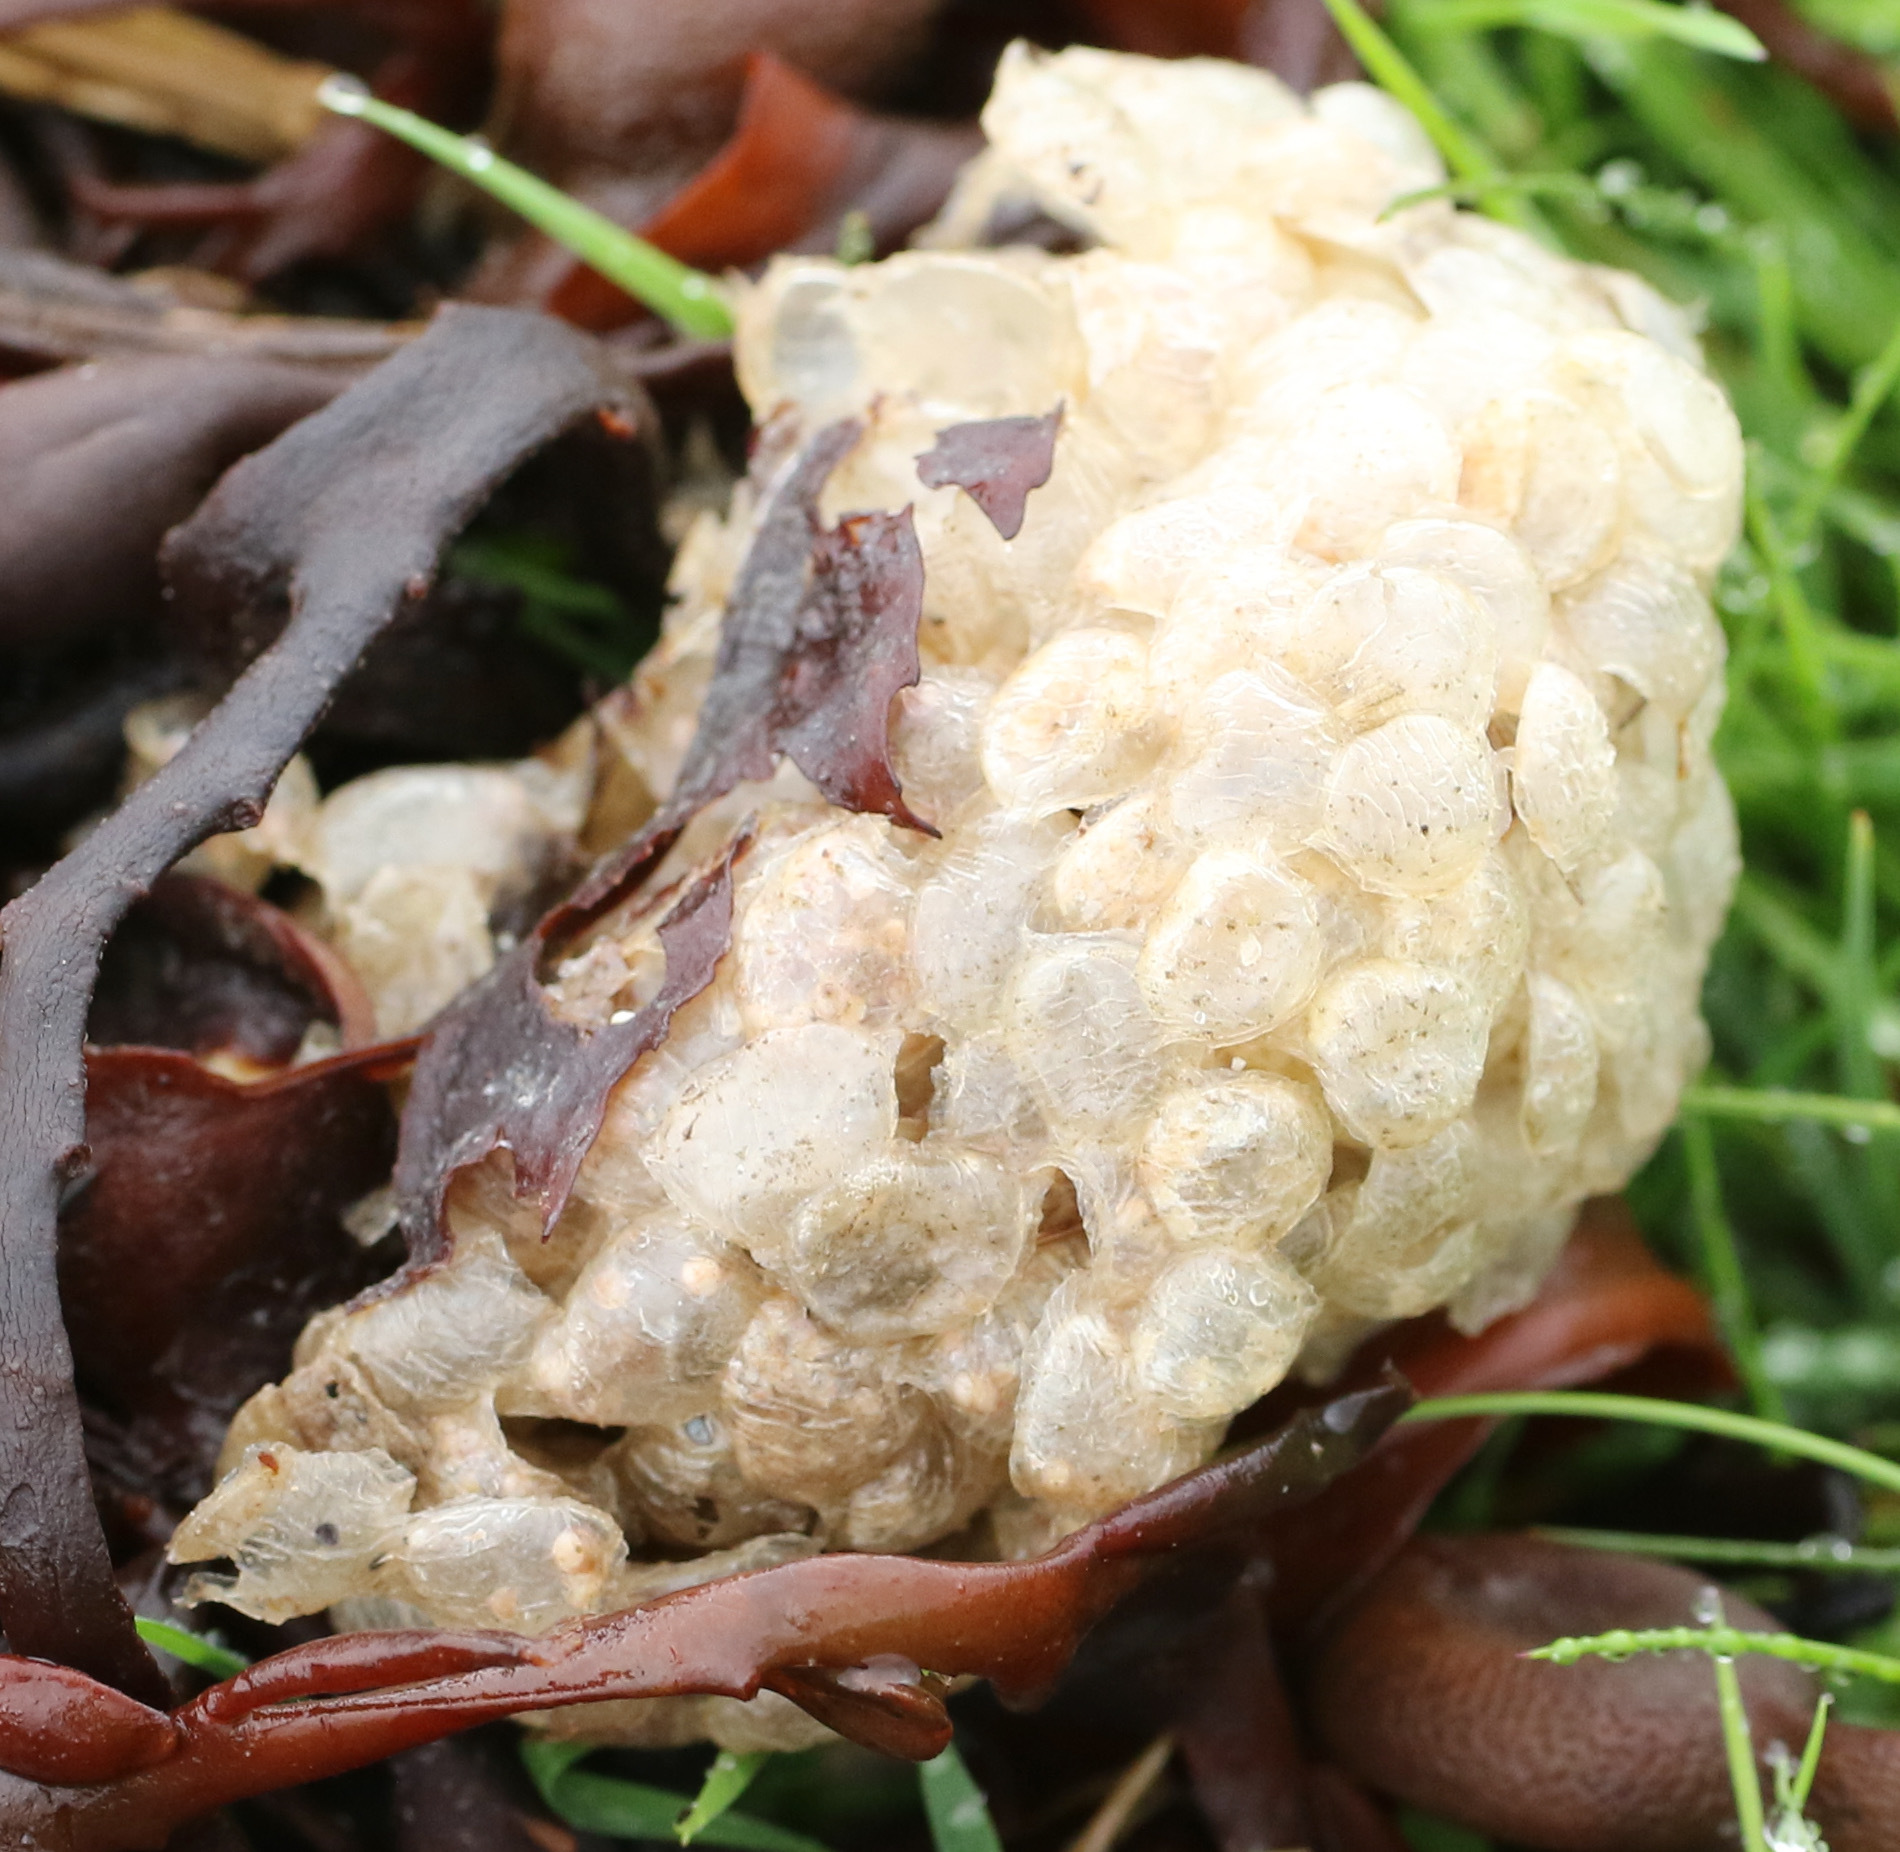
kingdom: Animalia
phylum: Mollusca
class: Gastropoda
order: Neogastropoda
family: Buccinidae
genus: Buccinum
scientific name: Buccinum undatum
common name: Common whelk
